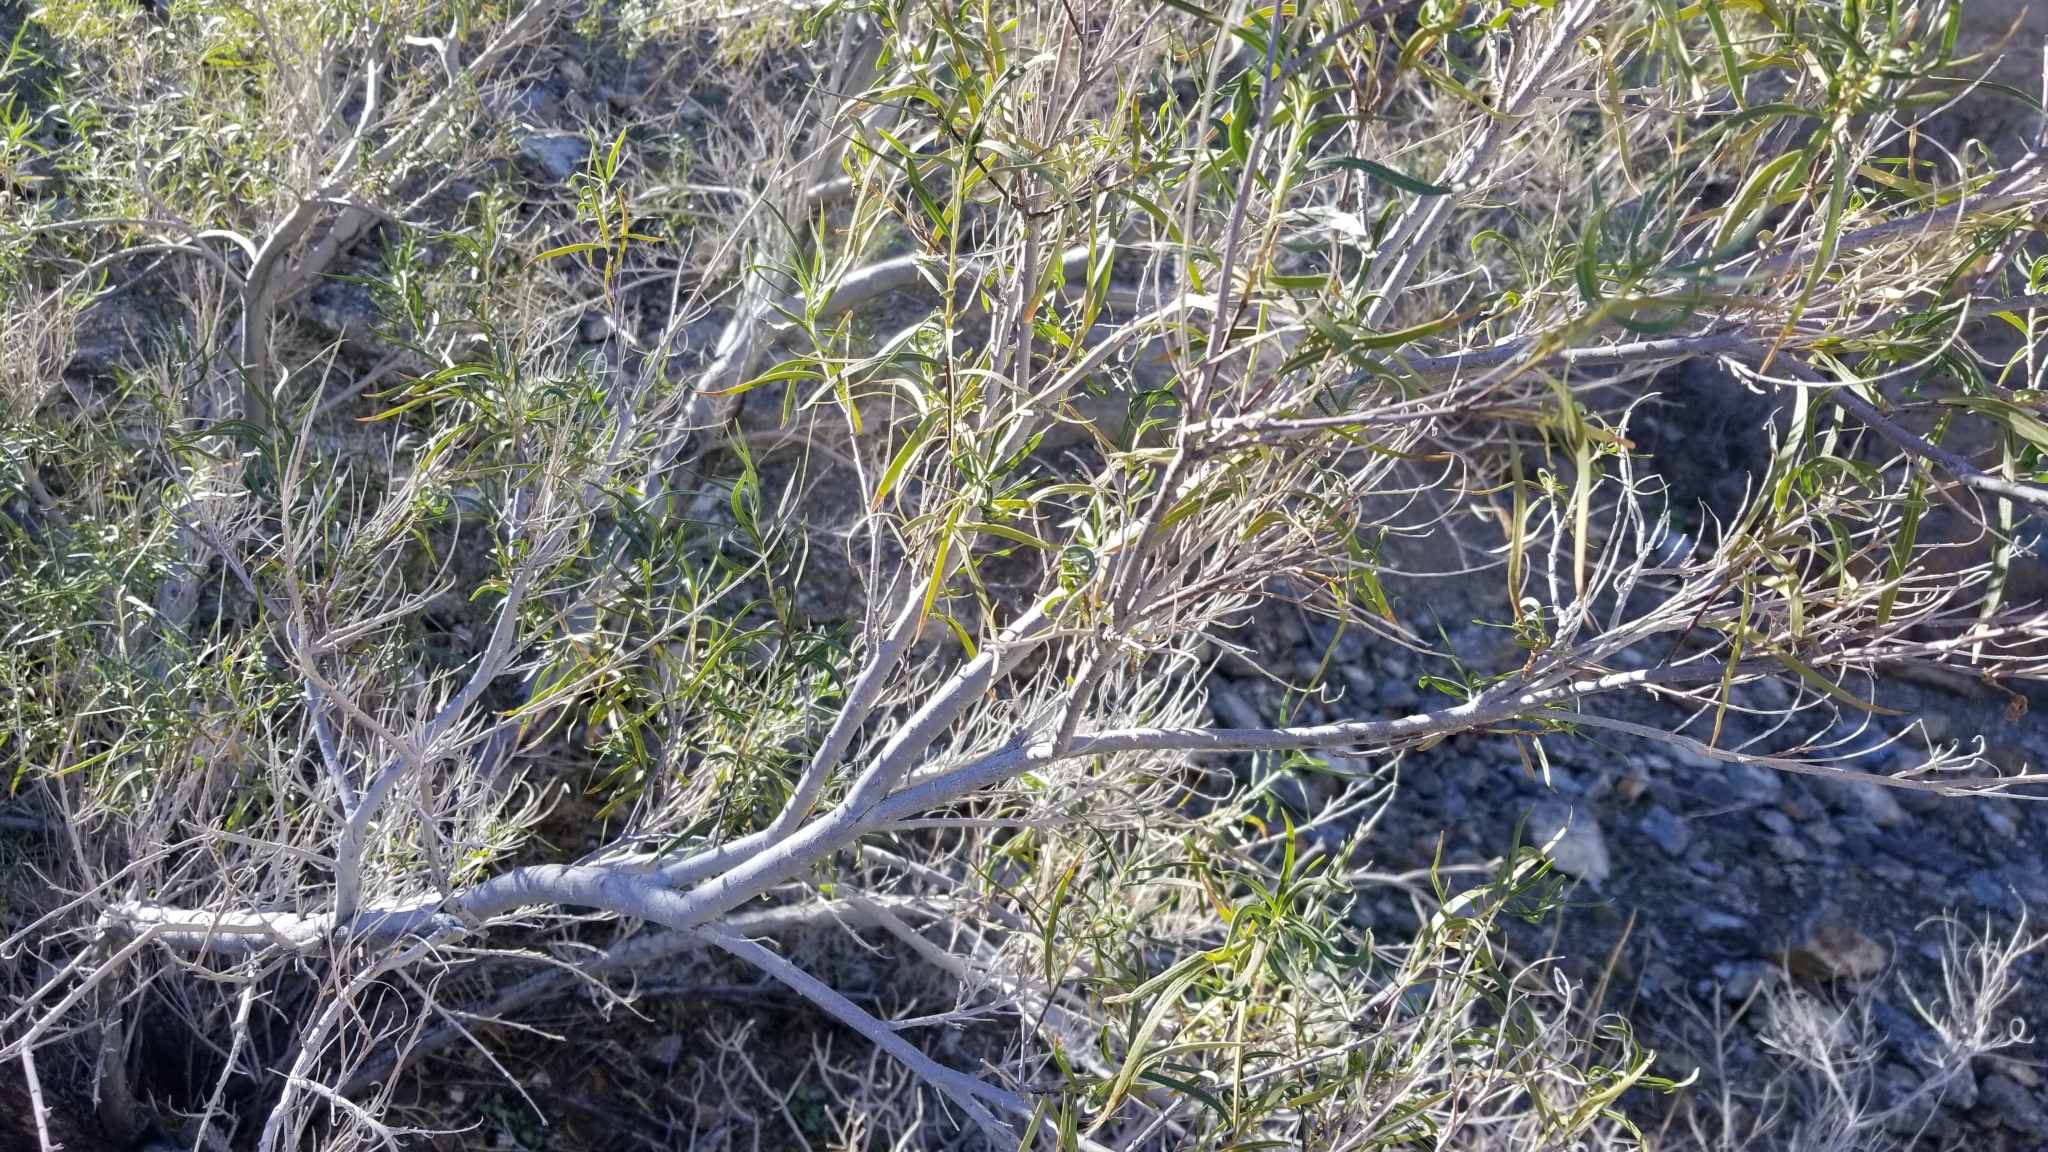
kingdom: Plantae
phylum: Tracheophyta
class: Magnoliopsida
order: Lamiales
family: Bignoniaceae
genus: Chilopsis
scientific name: Chilopsis linearis
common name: Desert-willow
